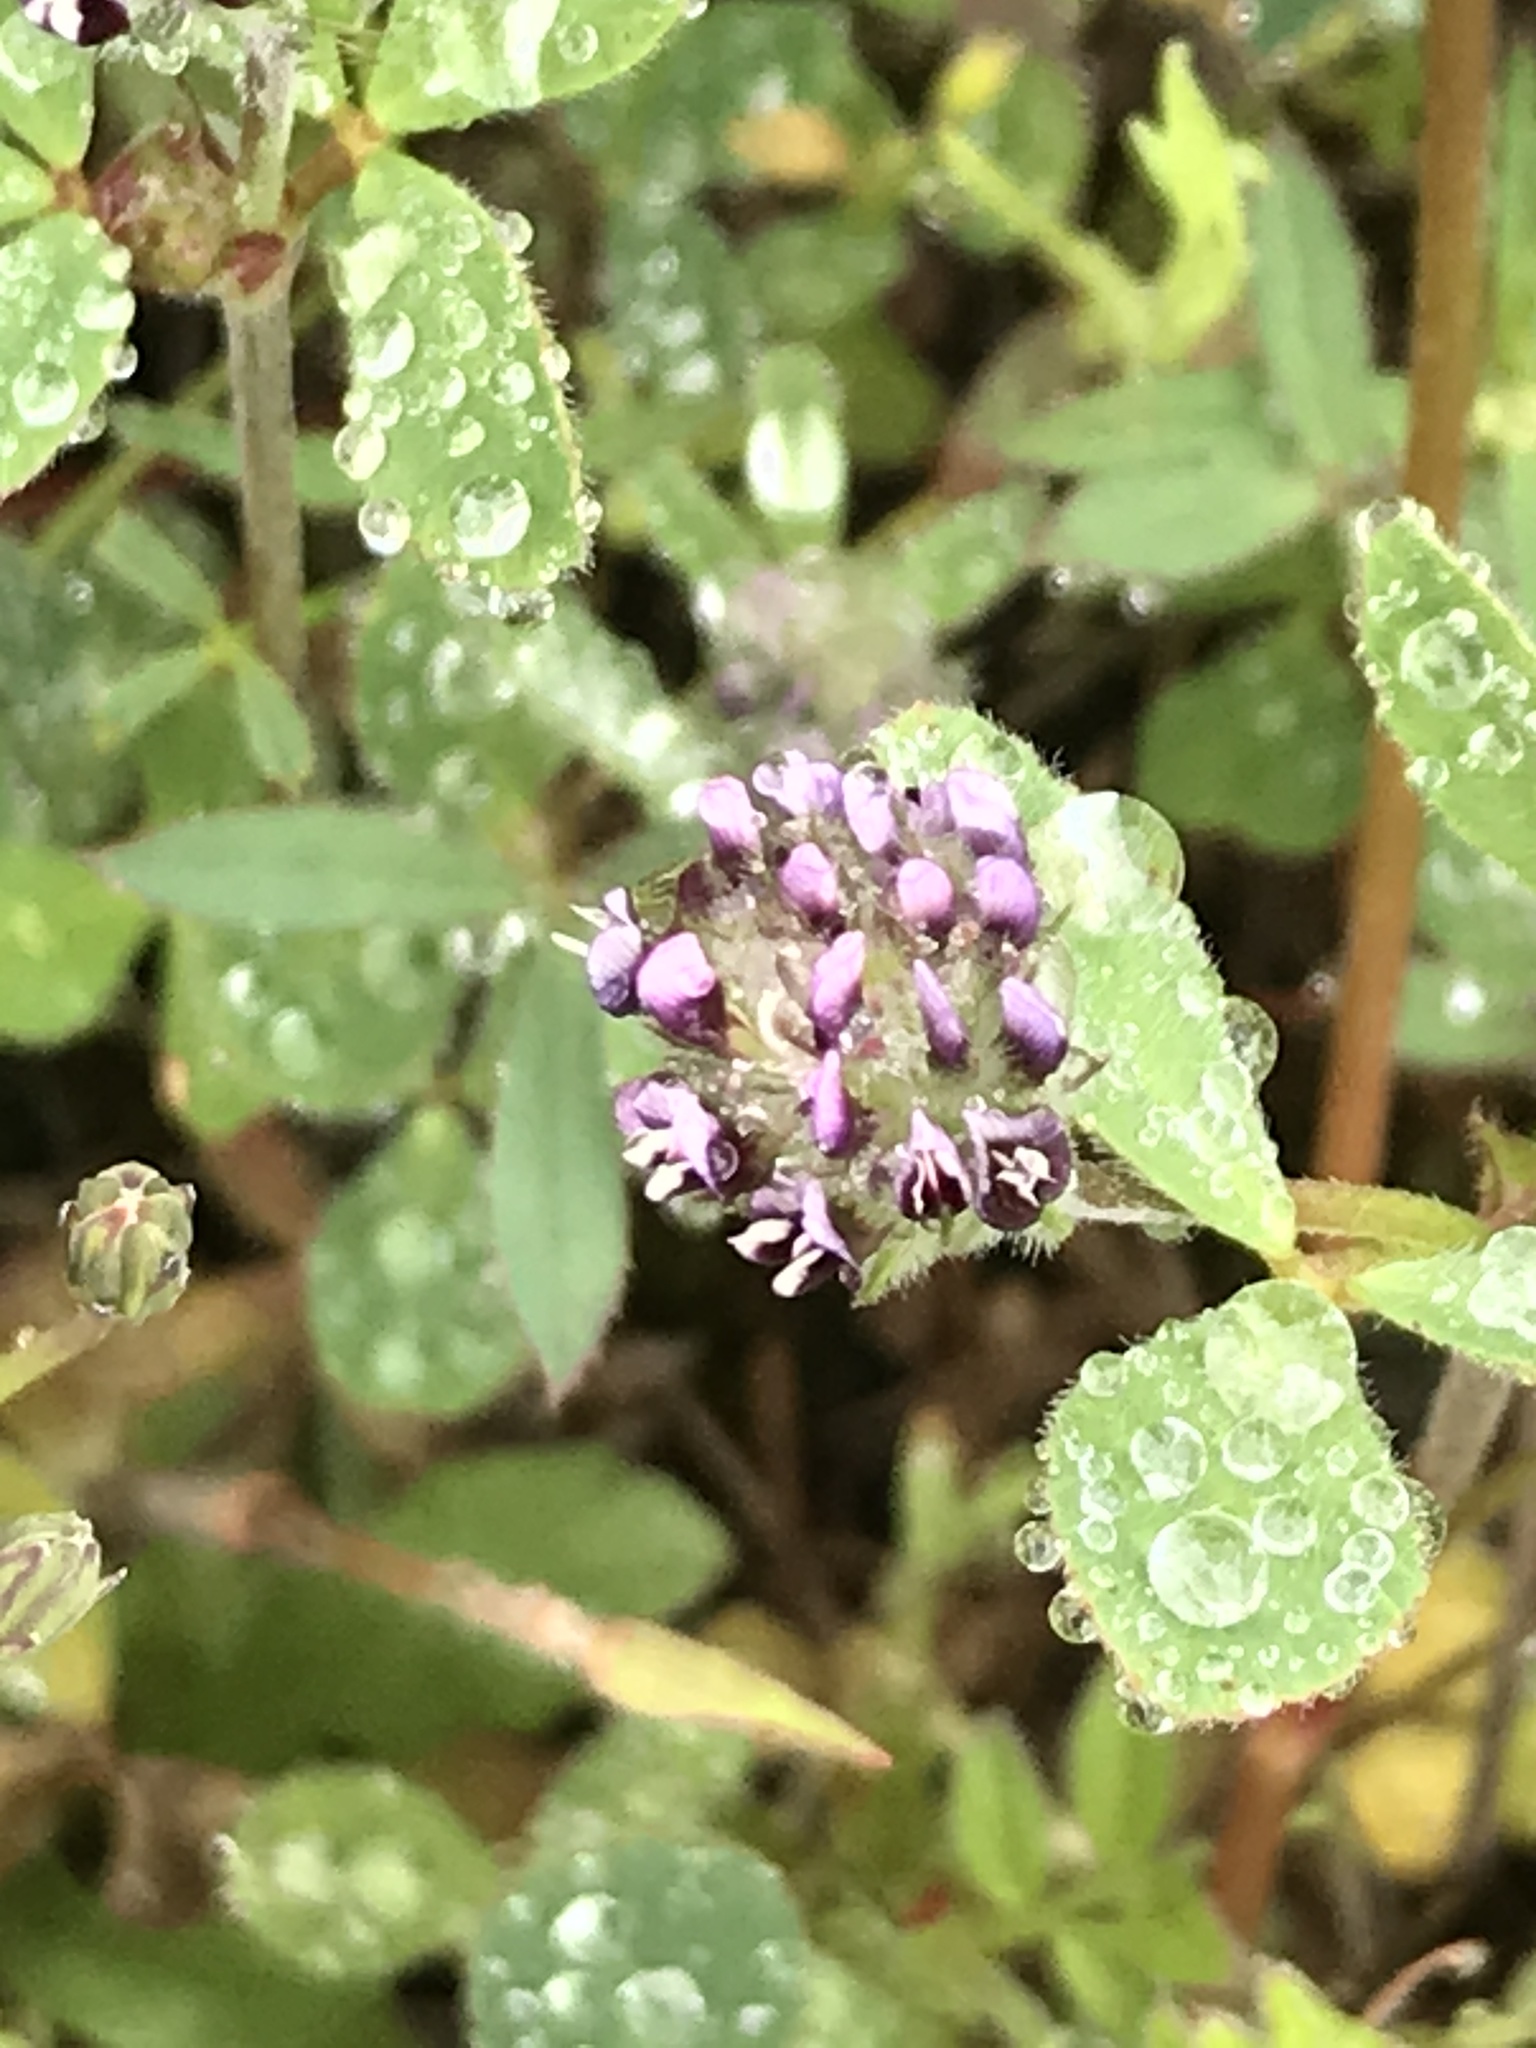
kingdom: Plantae
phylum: Tracheophyta
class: Magnoliopsida
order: Fabales
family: Fabaceae
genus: Trifolium
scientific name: Trifolium dichotomum
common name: Branched indian clover
